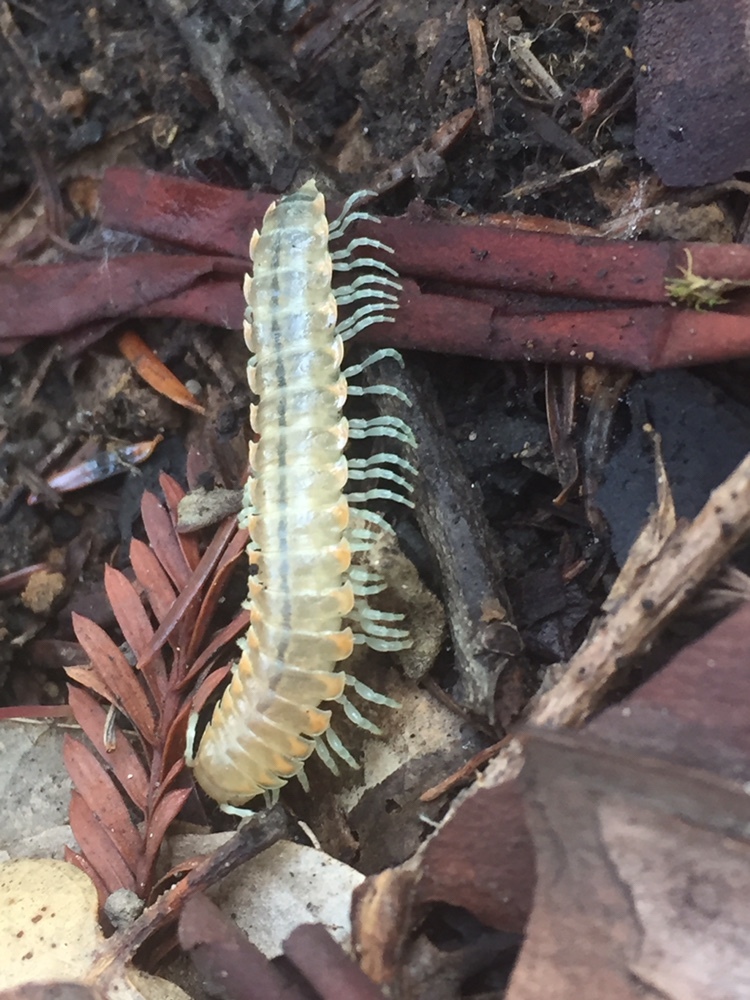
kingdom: Animalia
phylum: Arthropoda
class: Diplopoda
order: Polydesmida
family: Xystodesmidae
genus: Xystocheir
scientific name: Xystocheir dissecta
